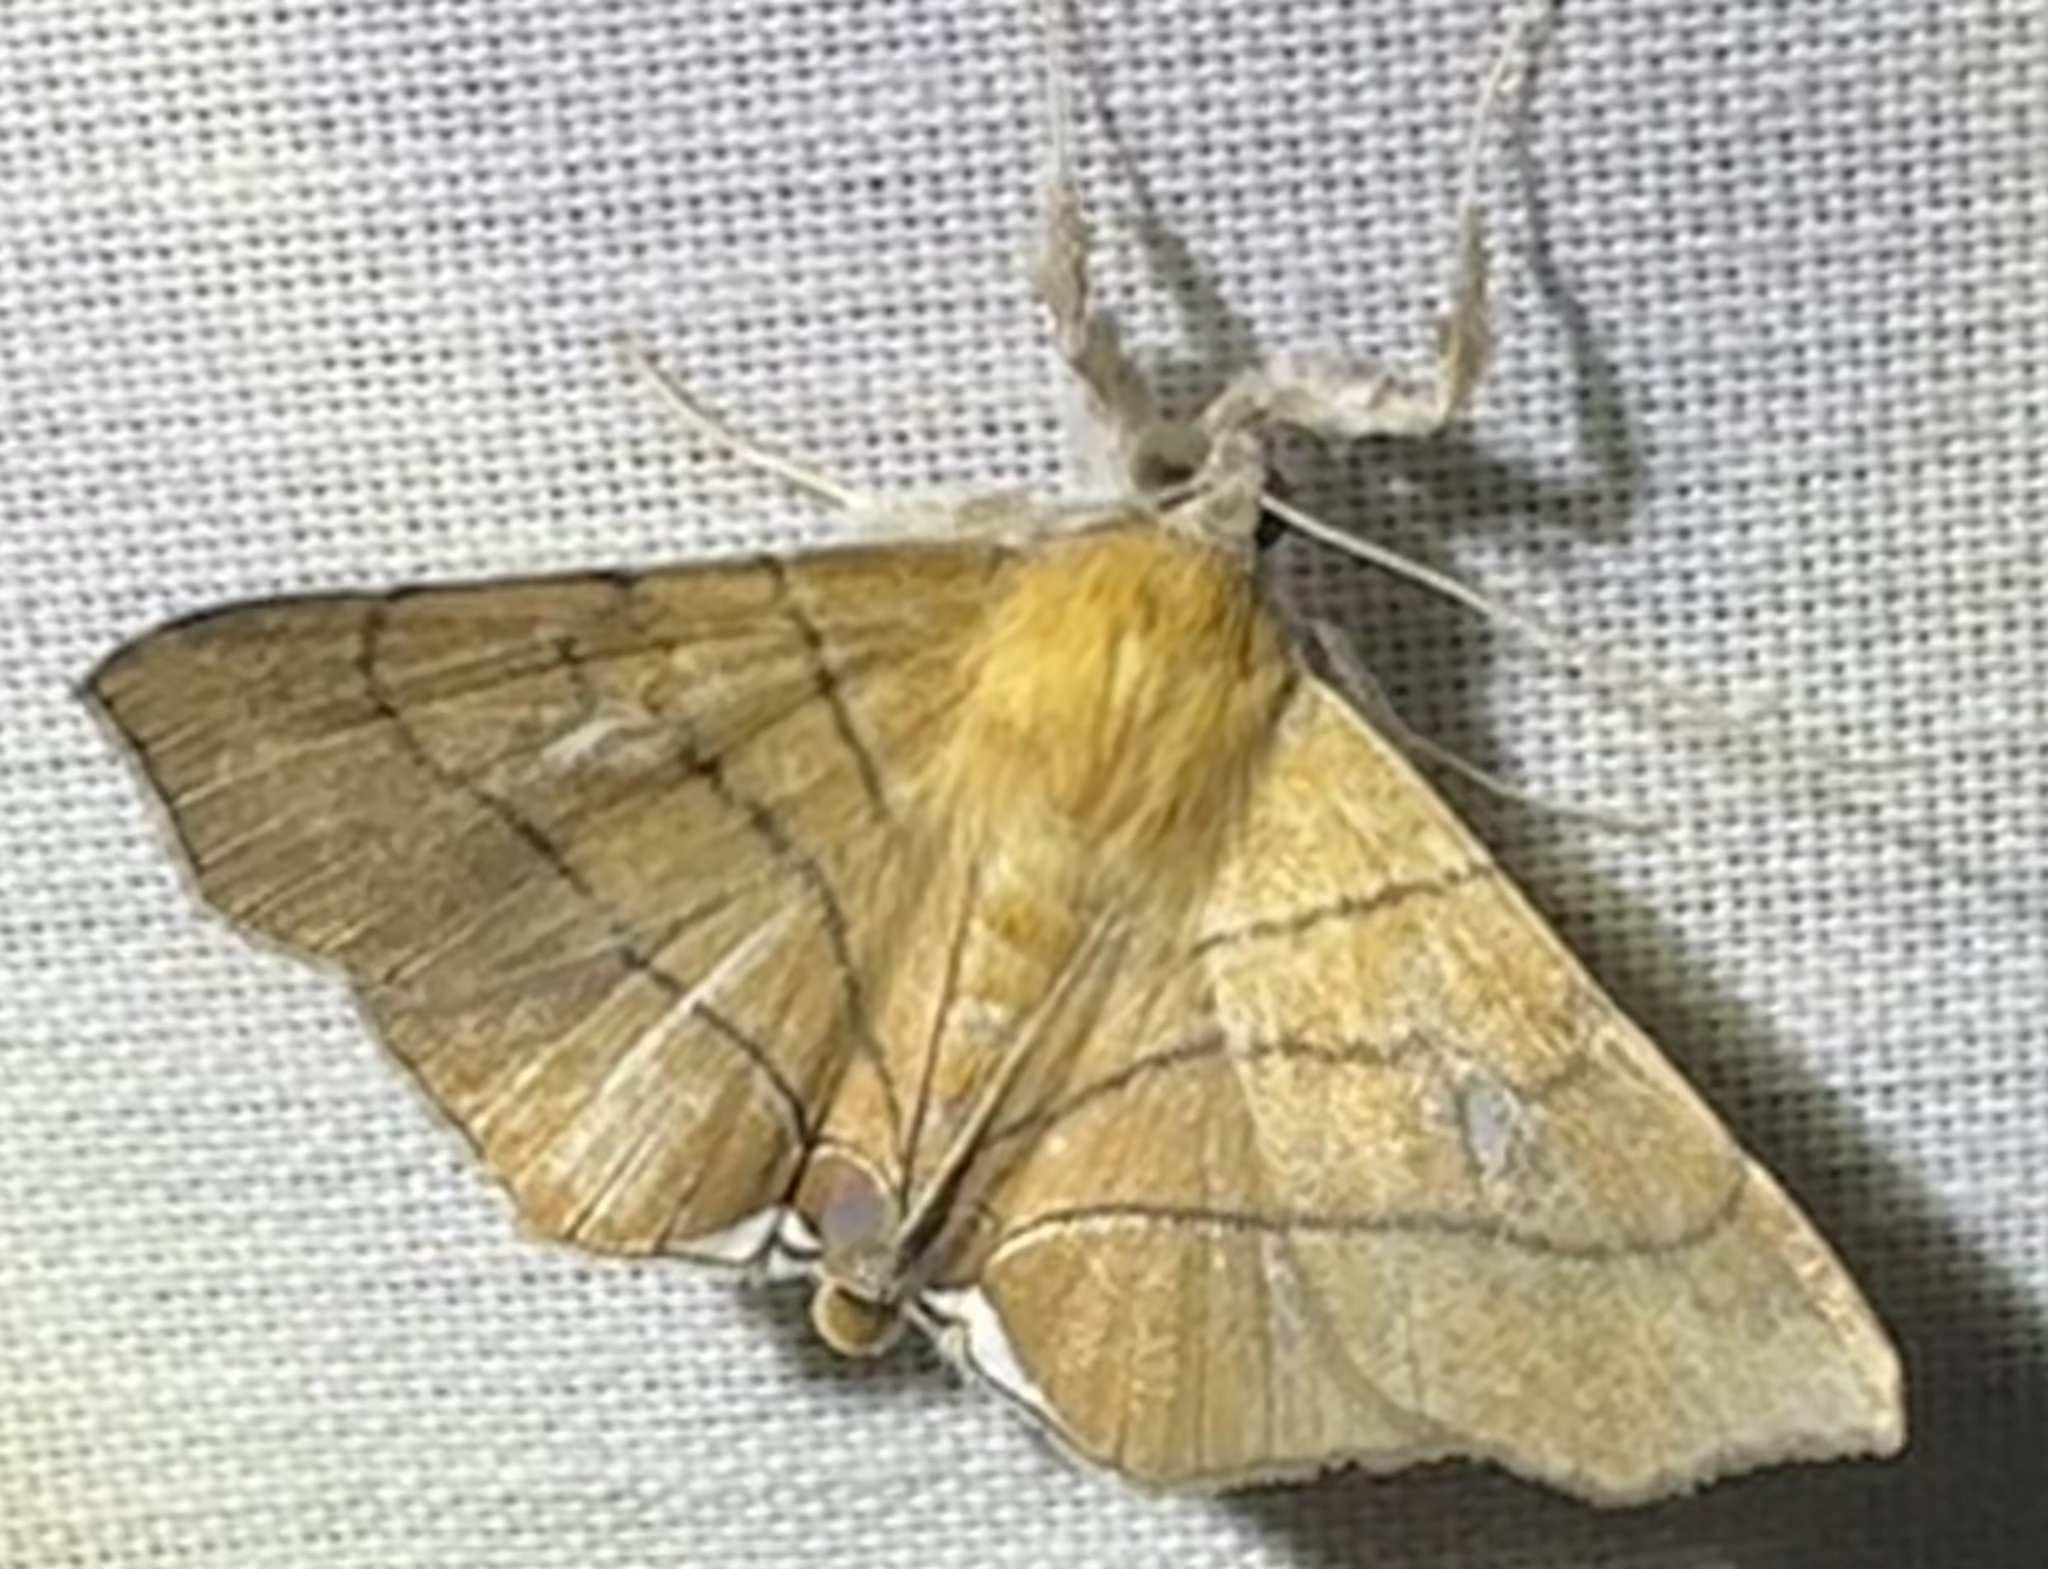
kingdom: Animalia
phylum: Arthropoda
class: Insecta
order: Lepidoptera
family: Erebidae
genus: Gracilodes
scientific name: Gracilodes caffra
